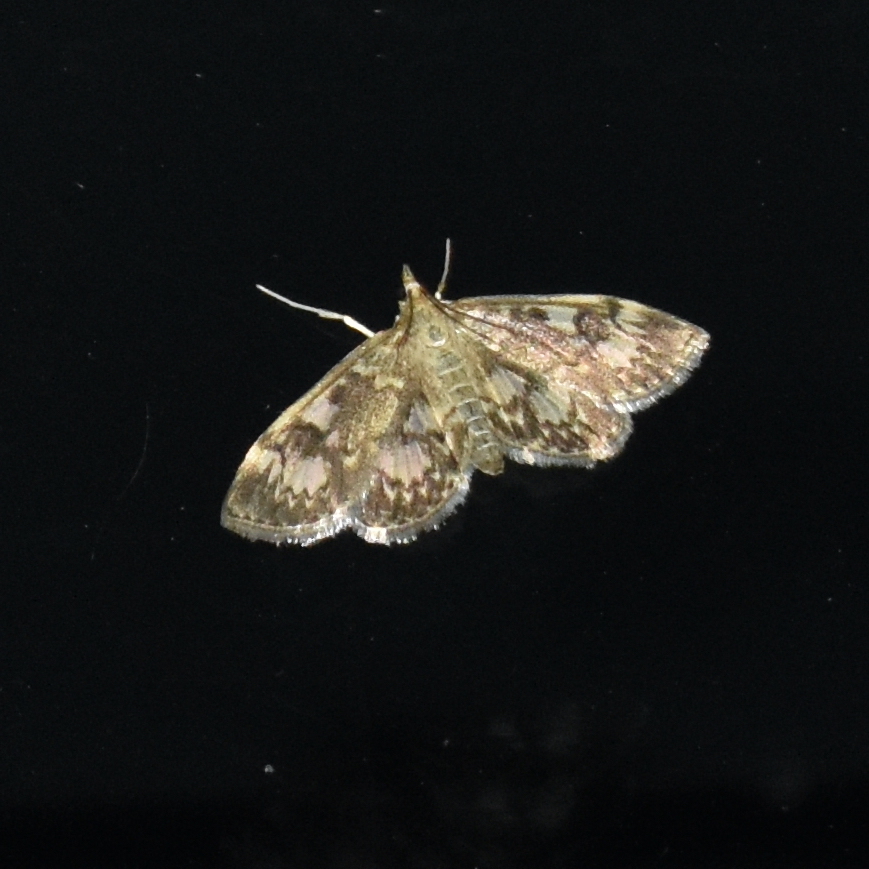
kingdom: Animalia
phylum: Arthropoda
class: Insecta
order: Lepidoptera
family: Crambidae
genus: Anania
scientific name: Anania tertialis
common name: Crowned phylctaenia moth
